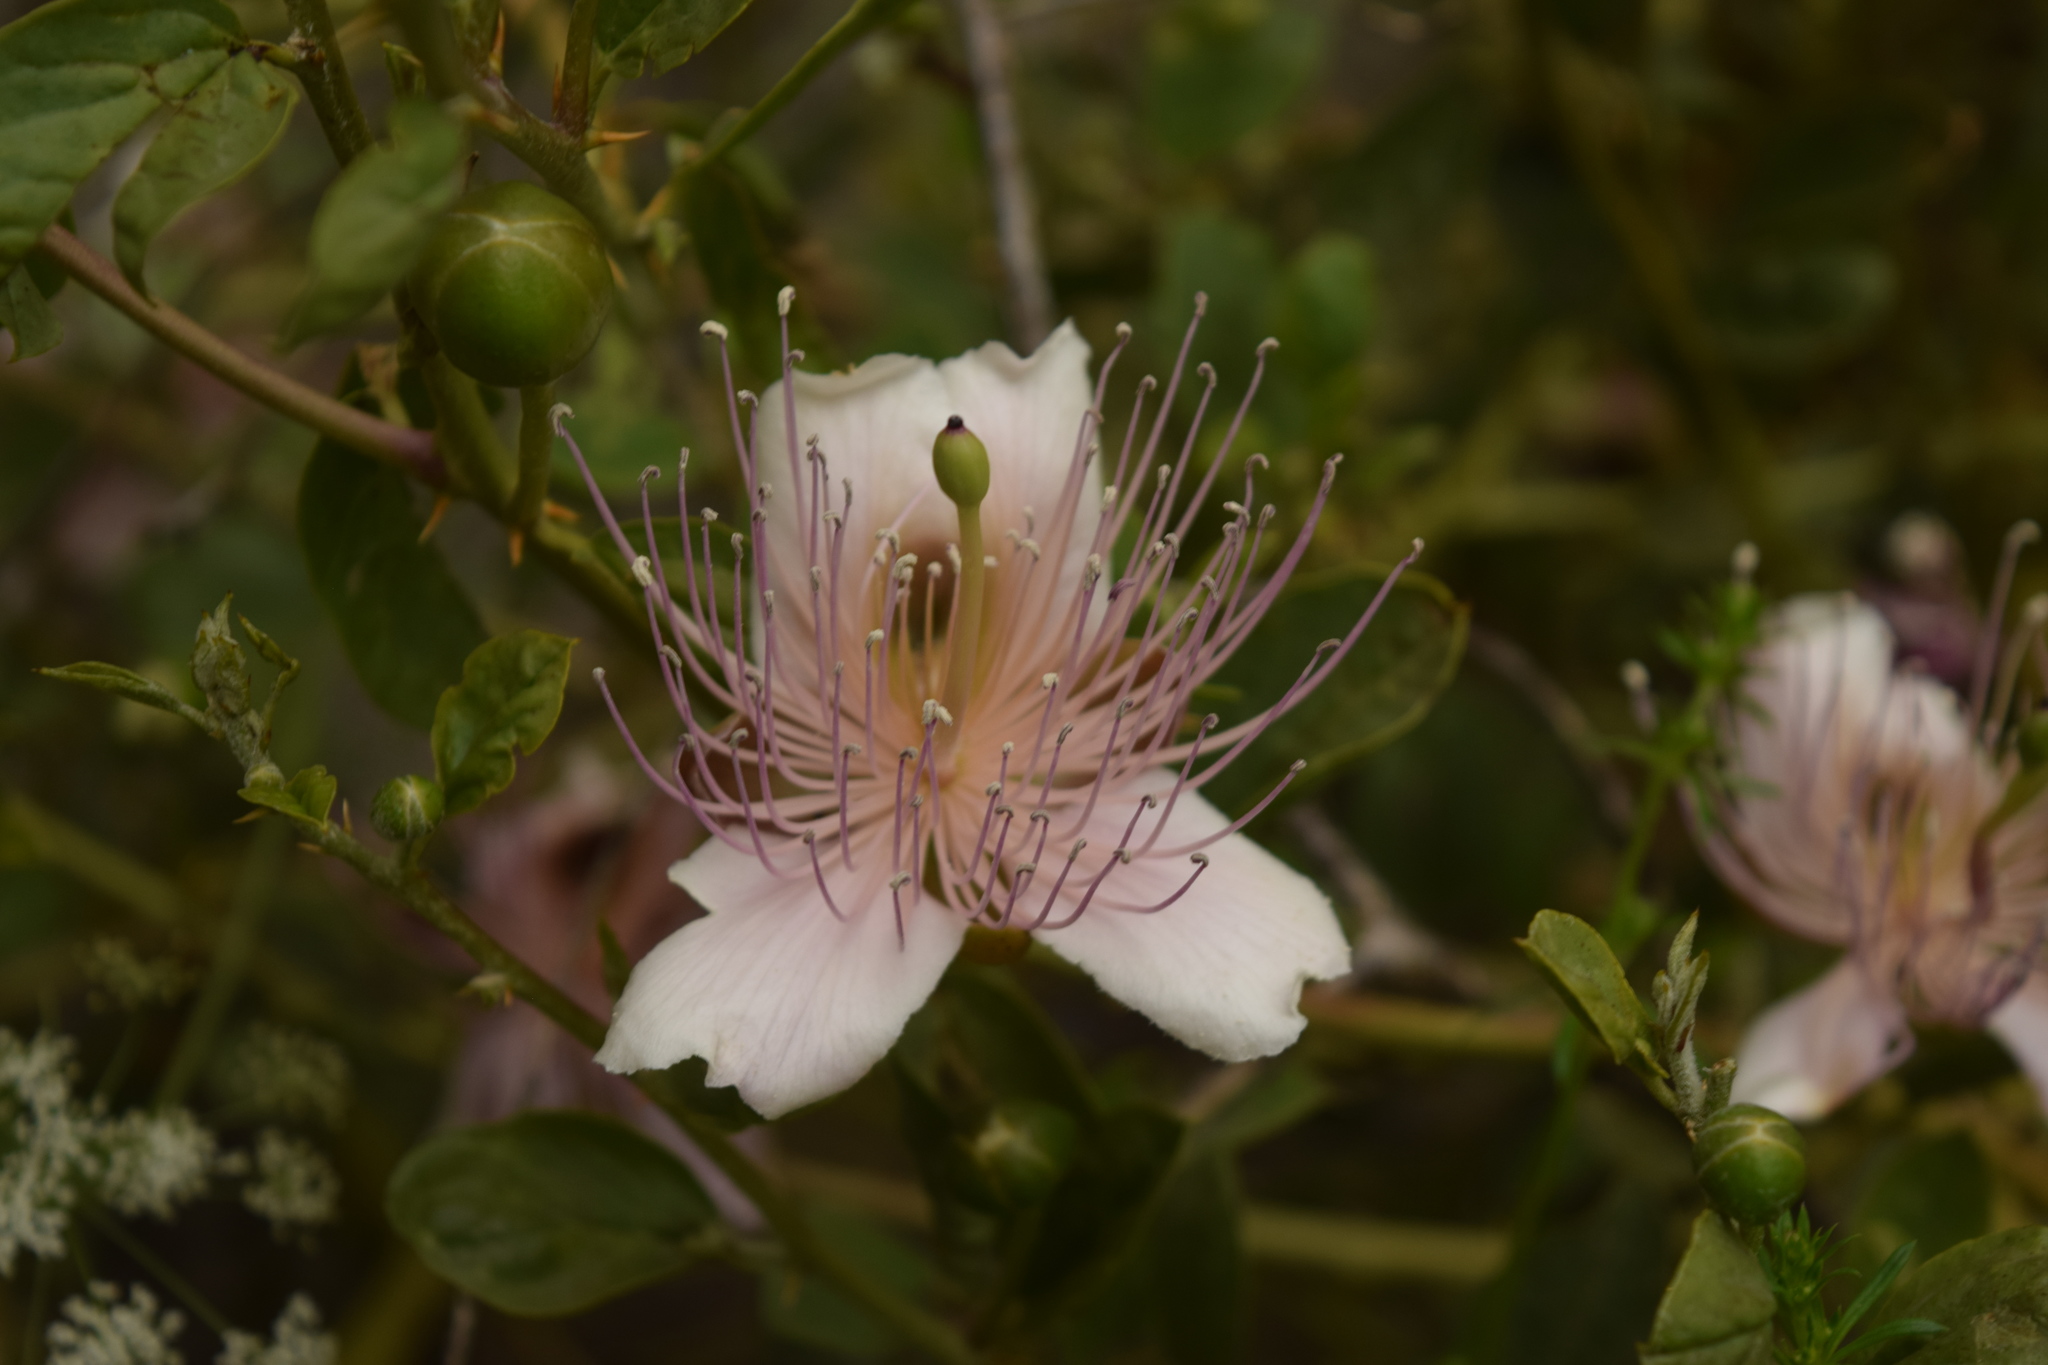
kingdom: Plantae
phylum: Tracheophyta
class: Magnoliopsida
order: Brassicales
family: Capparaceae
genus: Capparis
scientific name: Capparis spinosa
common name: Caper
